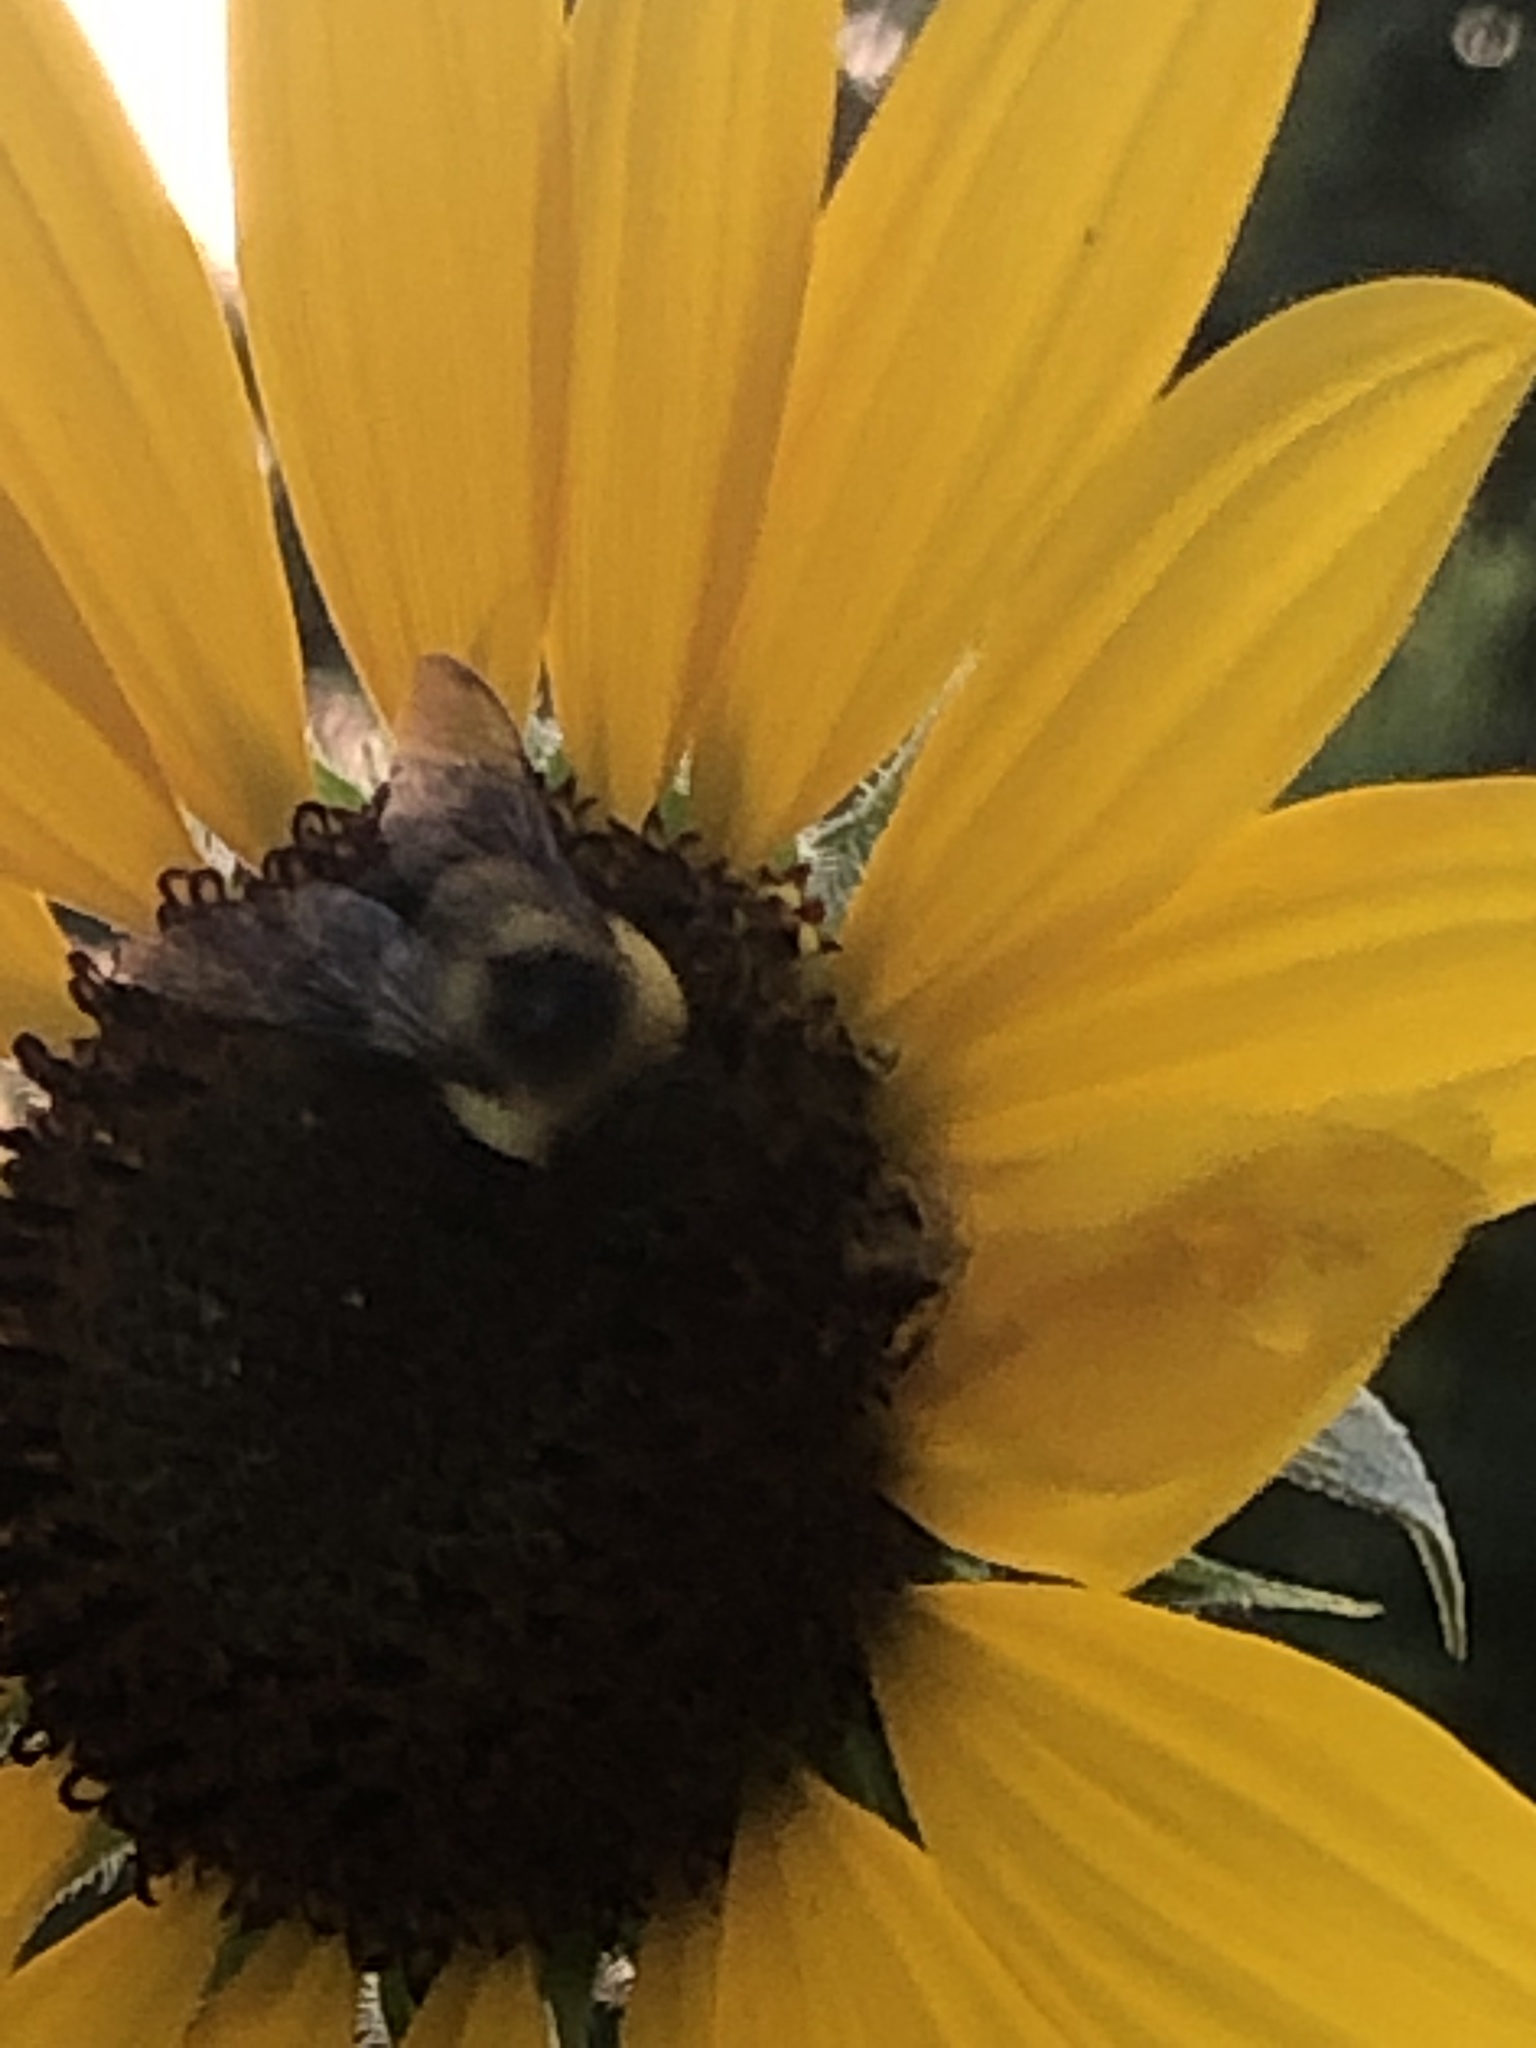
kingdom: Animalia
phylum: Arthropoda
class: Insecta
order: Hymenoptera
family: Apidae
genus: Bombus
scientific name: Bombus impatiens
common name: Common eastern bumble bee
